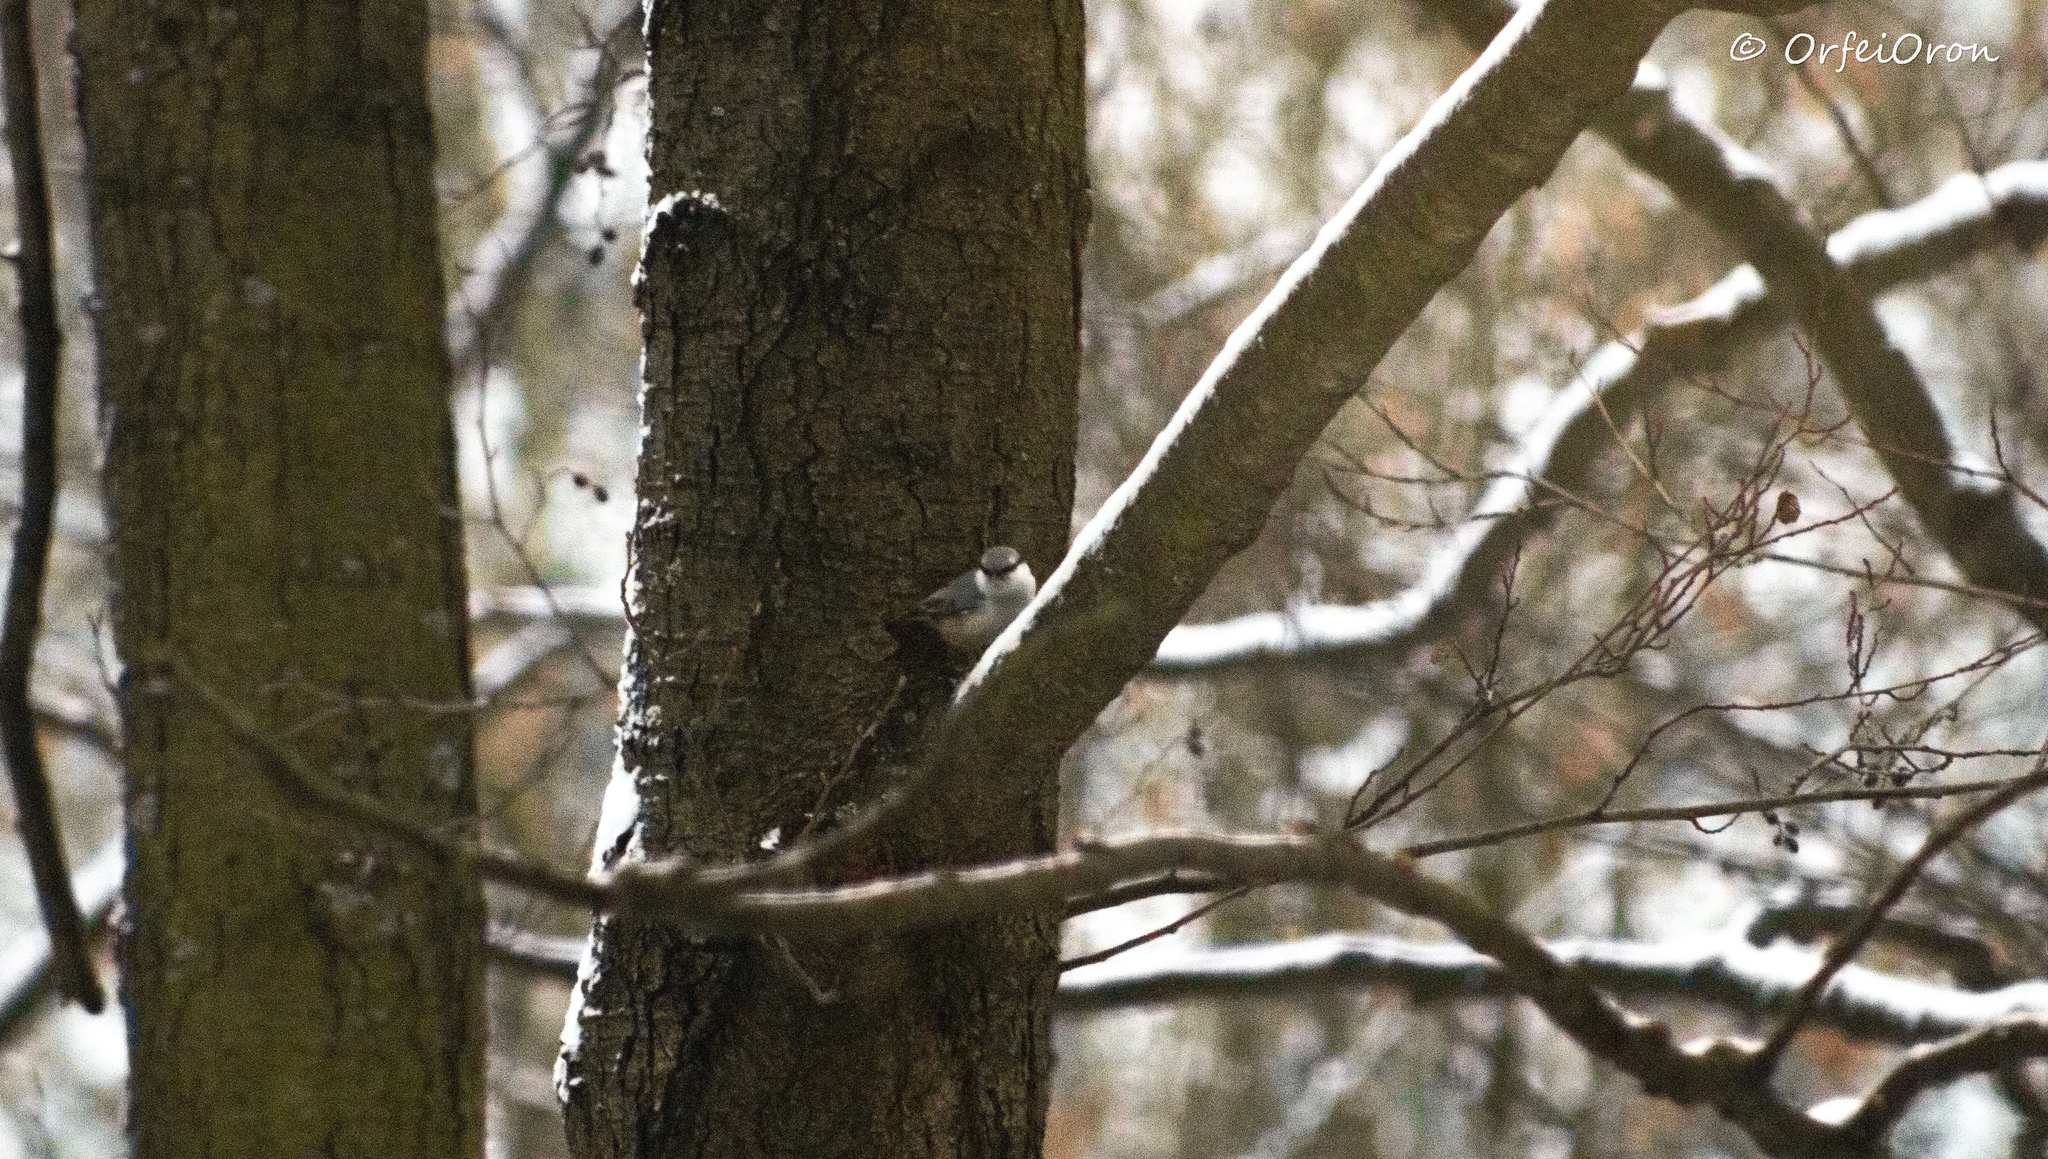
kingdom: Animalia
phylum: Chordata
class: Aves
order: Passeriformes
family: Sittidae
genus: Sitta
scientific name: Sitta europaea
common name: Eurasian nuthatch
